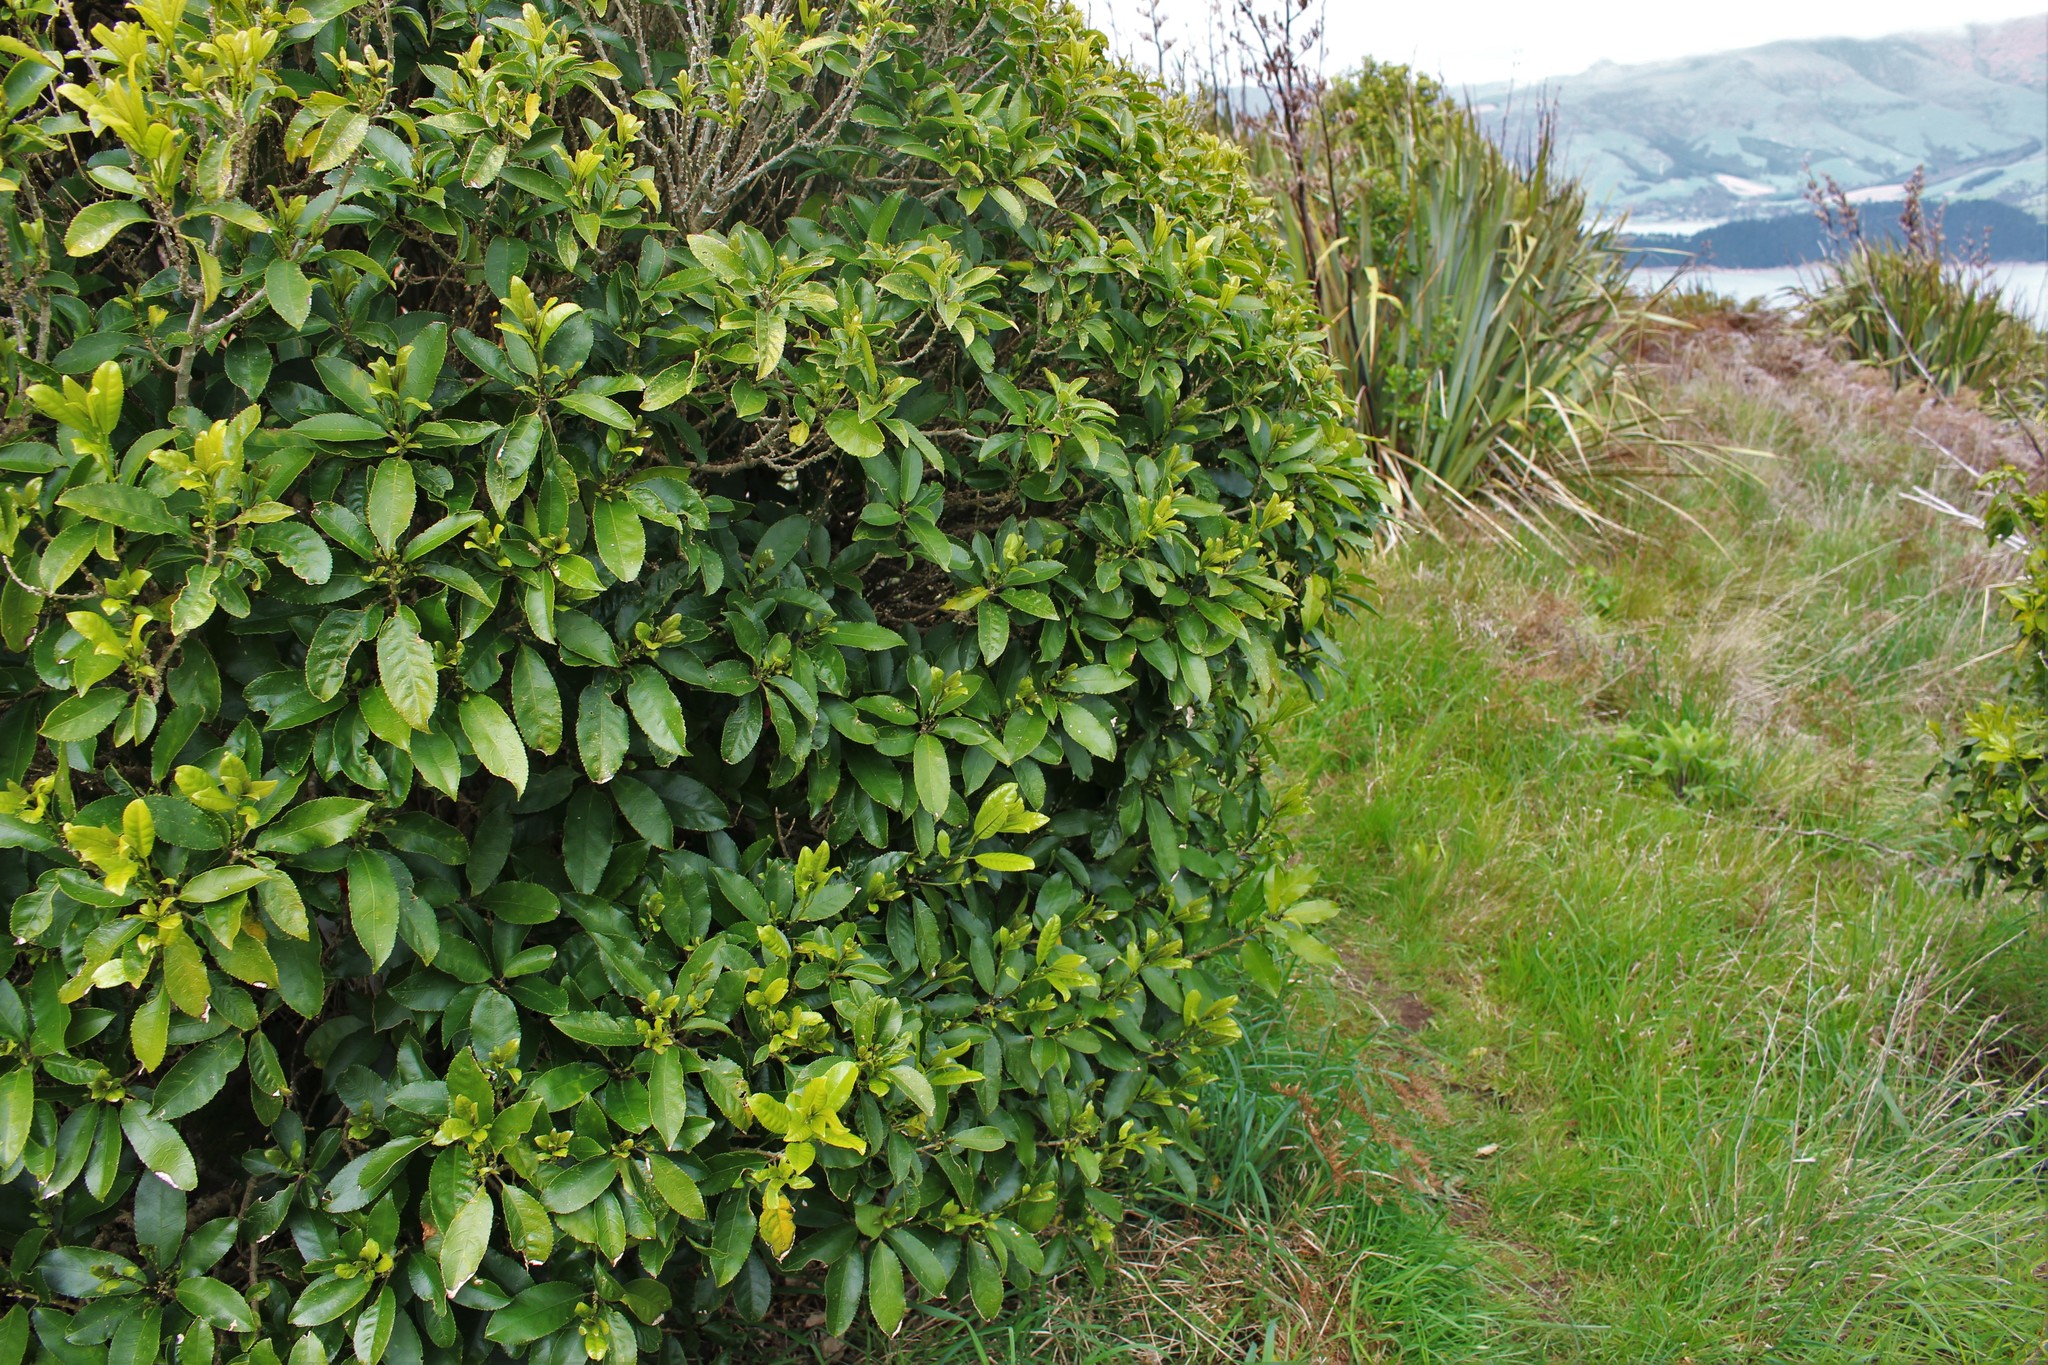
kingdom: Plantae
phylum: Tracheophyta
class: Magnoliopsida
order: Malpighiales
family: Violaceae
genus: Melicytus
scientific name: Melicytus ramiflorus
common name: Mahoe
